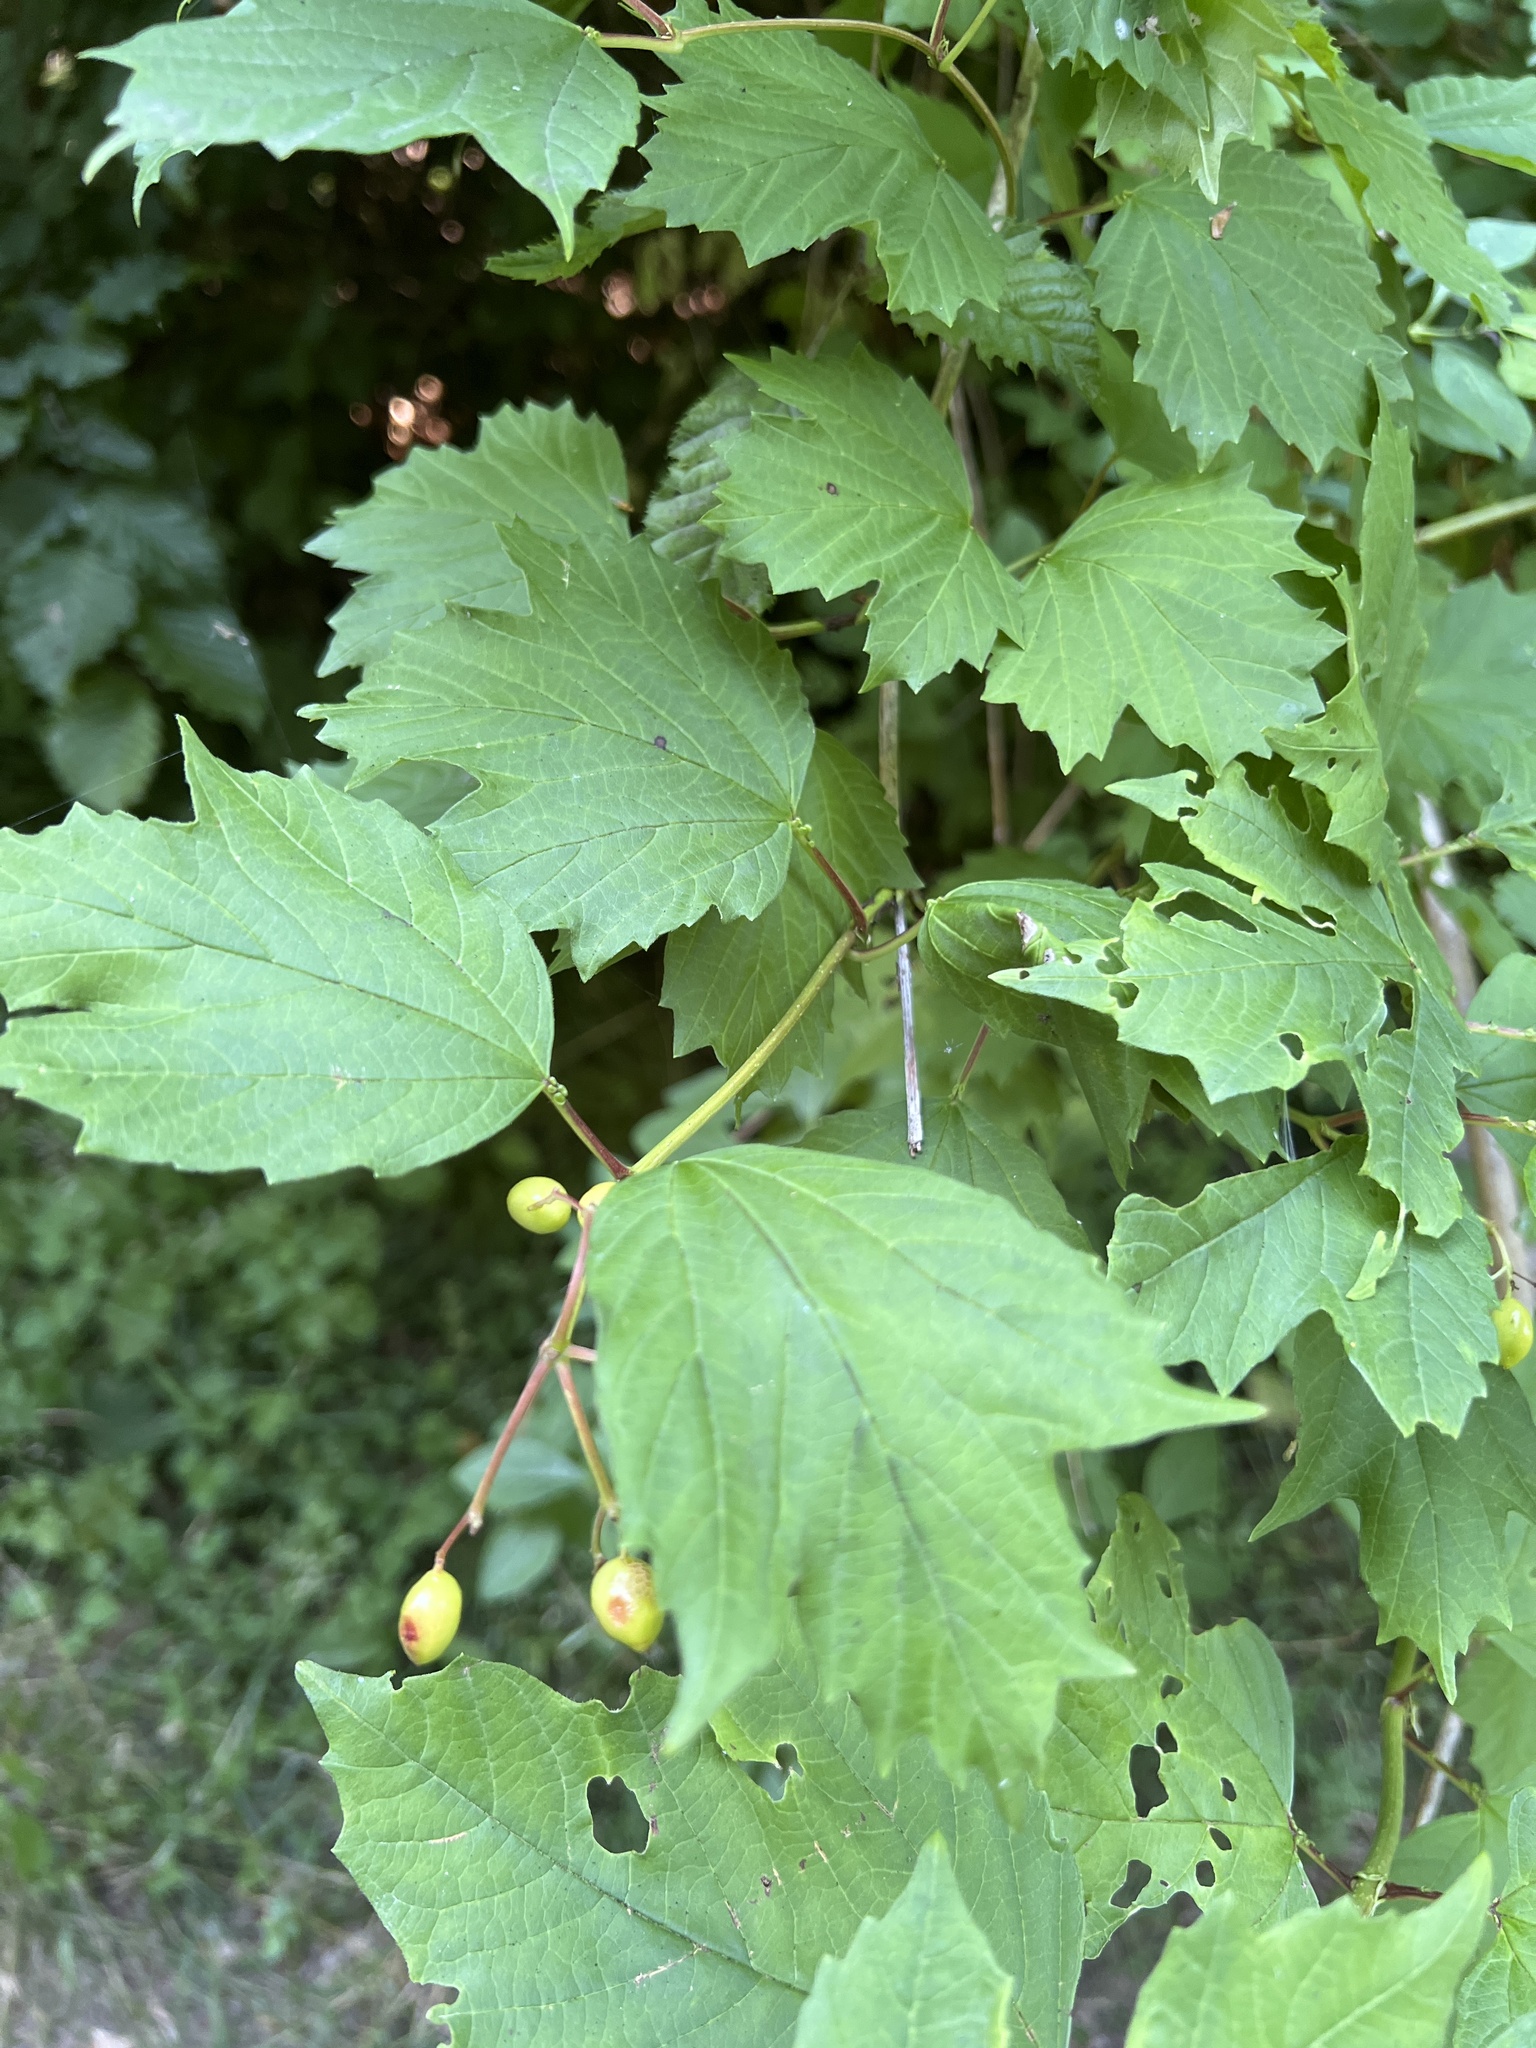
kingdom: Plantae
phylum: Tracheophyta
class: Magnoliopsida
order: Dipsacales
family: Viburnaceae
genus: Viburnum
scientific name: Viburnum opulus
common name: Guelder-rose
